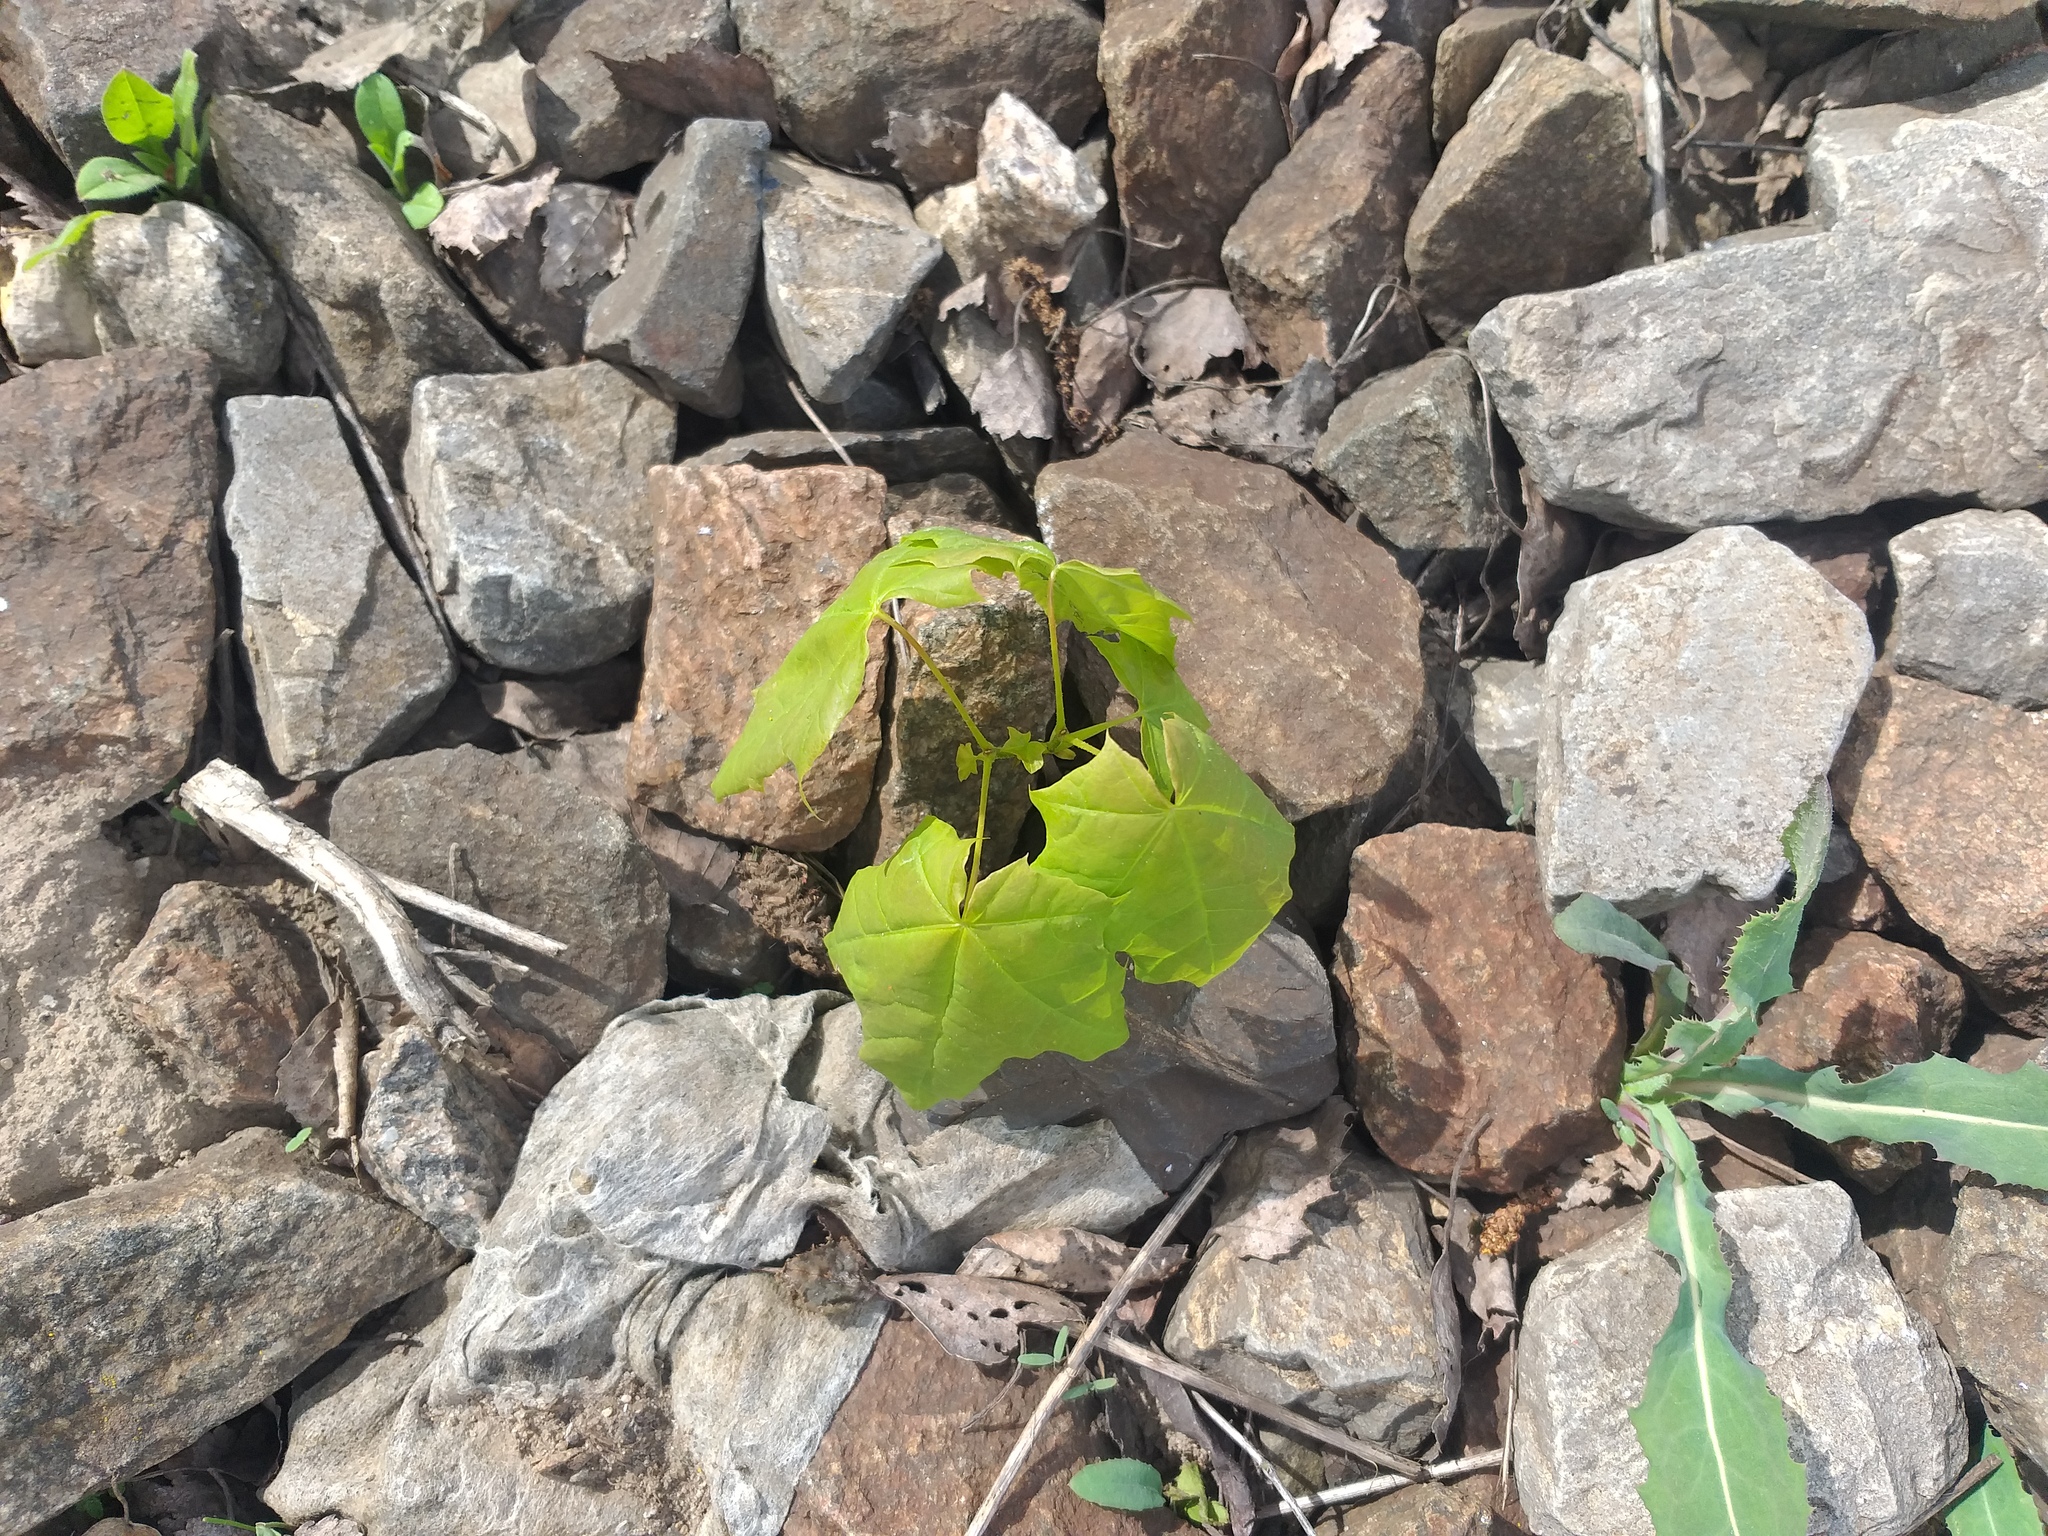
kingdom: Plantae
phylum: Tracheophyta
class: Magnoliopsida
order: Sapindales
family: Sapindaceae
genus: Acer
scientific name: Acer platanoides
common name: Norway maple
